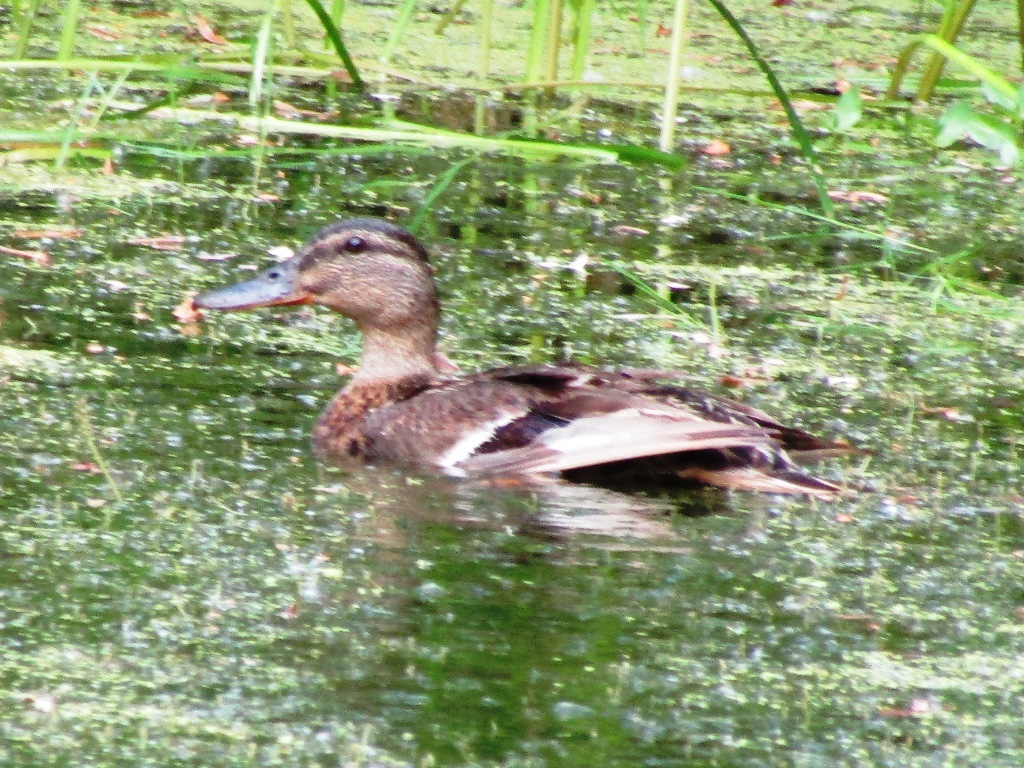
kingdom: Animalia
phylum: Chordata
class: Aves
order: Anseriformes
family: Anatidae
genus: Anas
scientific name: Anas platyrhynchos
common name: Mallard
